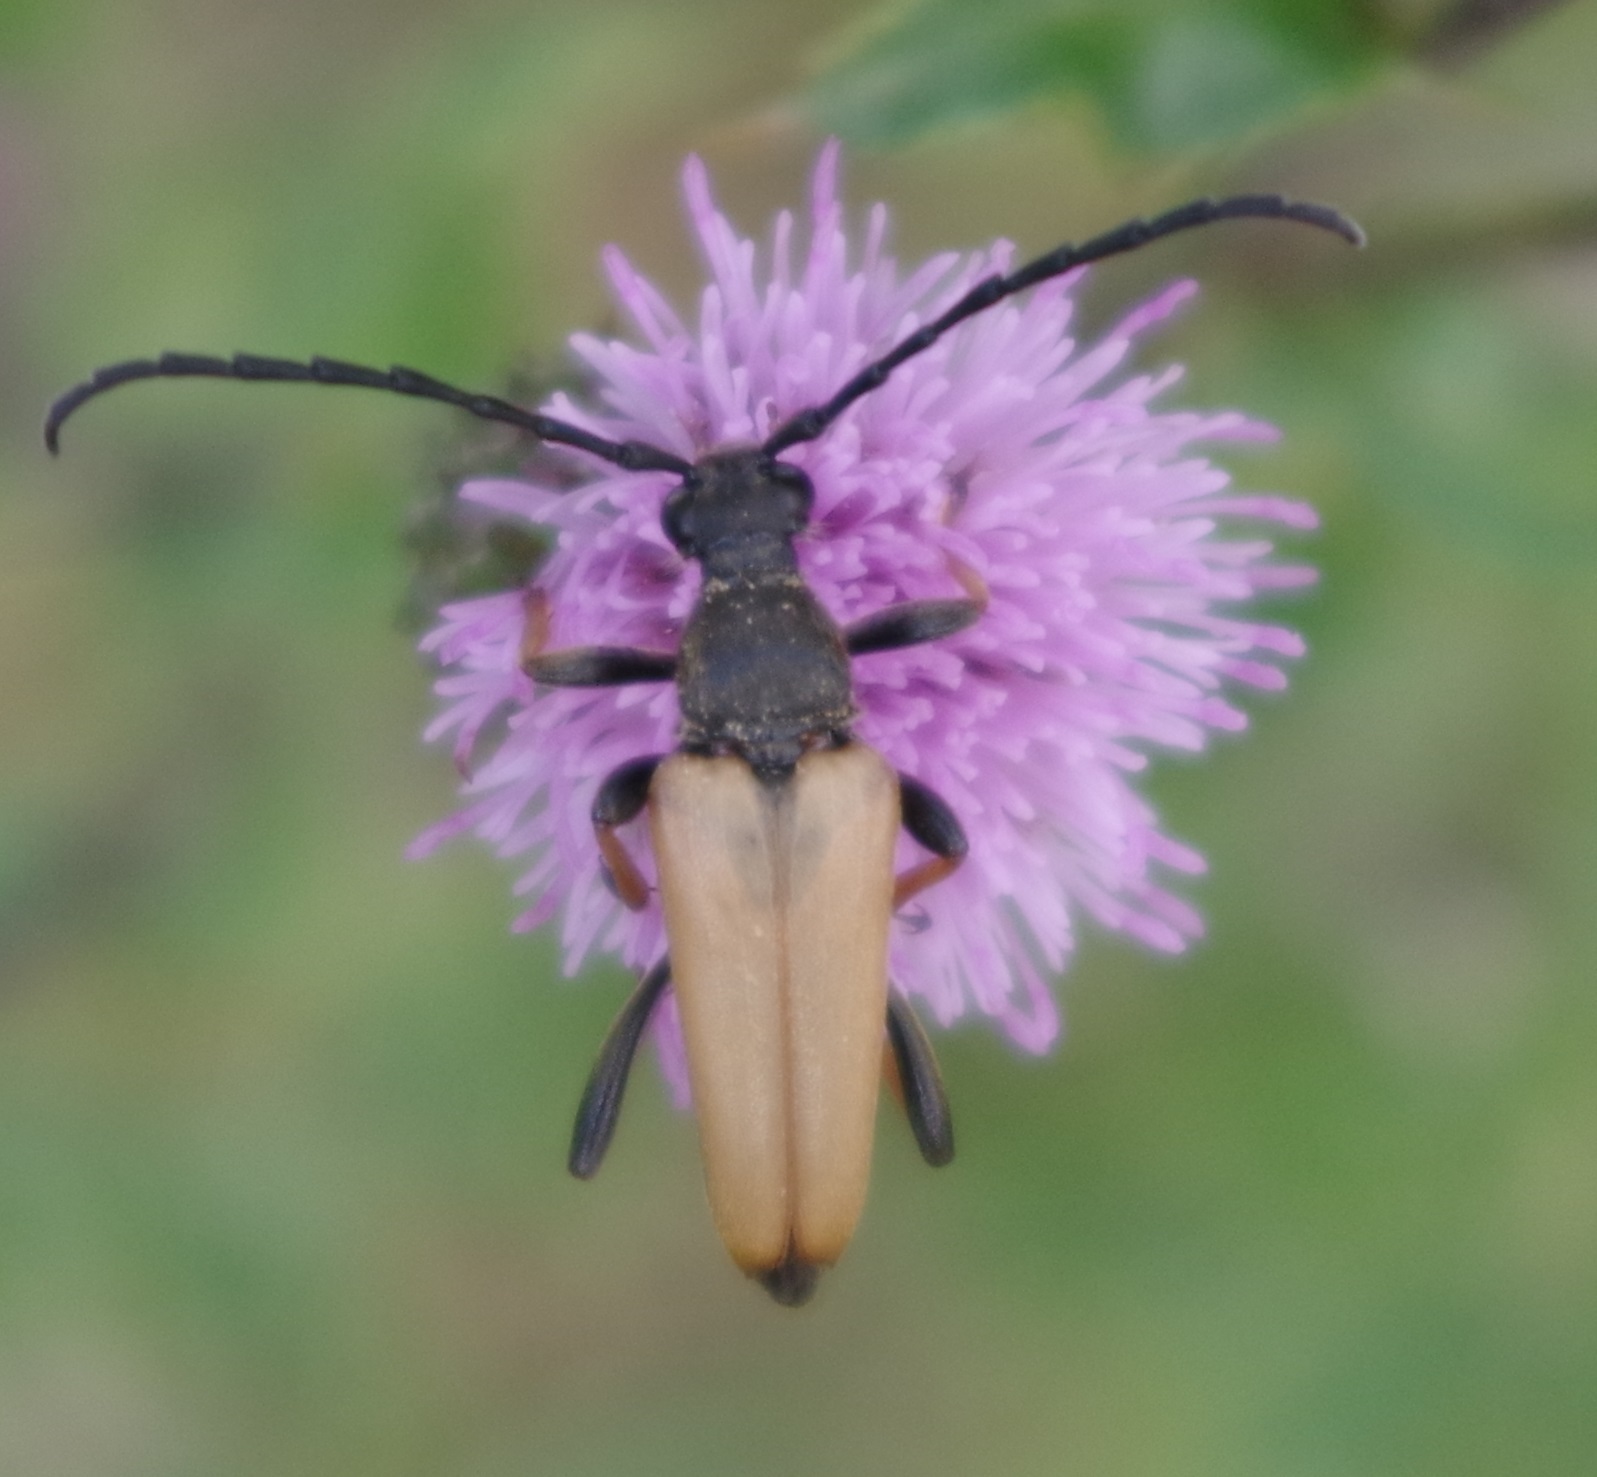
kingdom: Animalia
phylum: Arthropoda
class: Insecta
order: Coleoptera
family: Cerambycidae
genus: Stictoleptura
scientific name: Stictoleptura rubra
